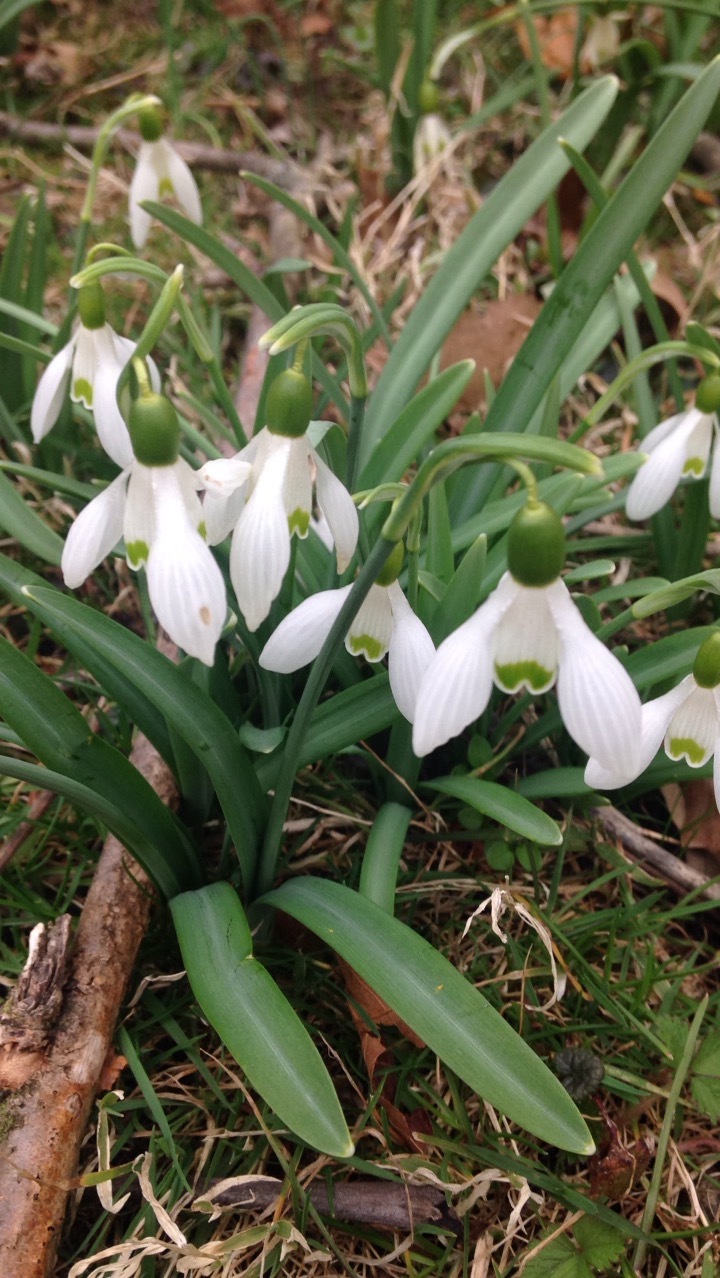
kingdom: Plantae
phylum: Tracheophyta
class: Liliopsida
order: Asparagales
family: Amaryllidaceae
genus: Galanthus
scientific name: Galanthus nivalis
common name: Snowdrop
